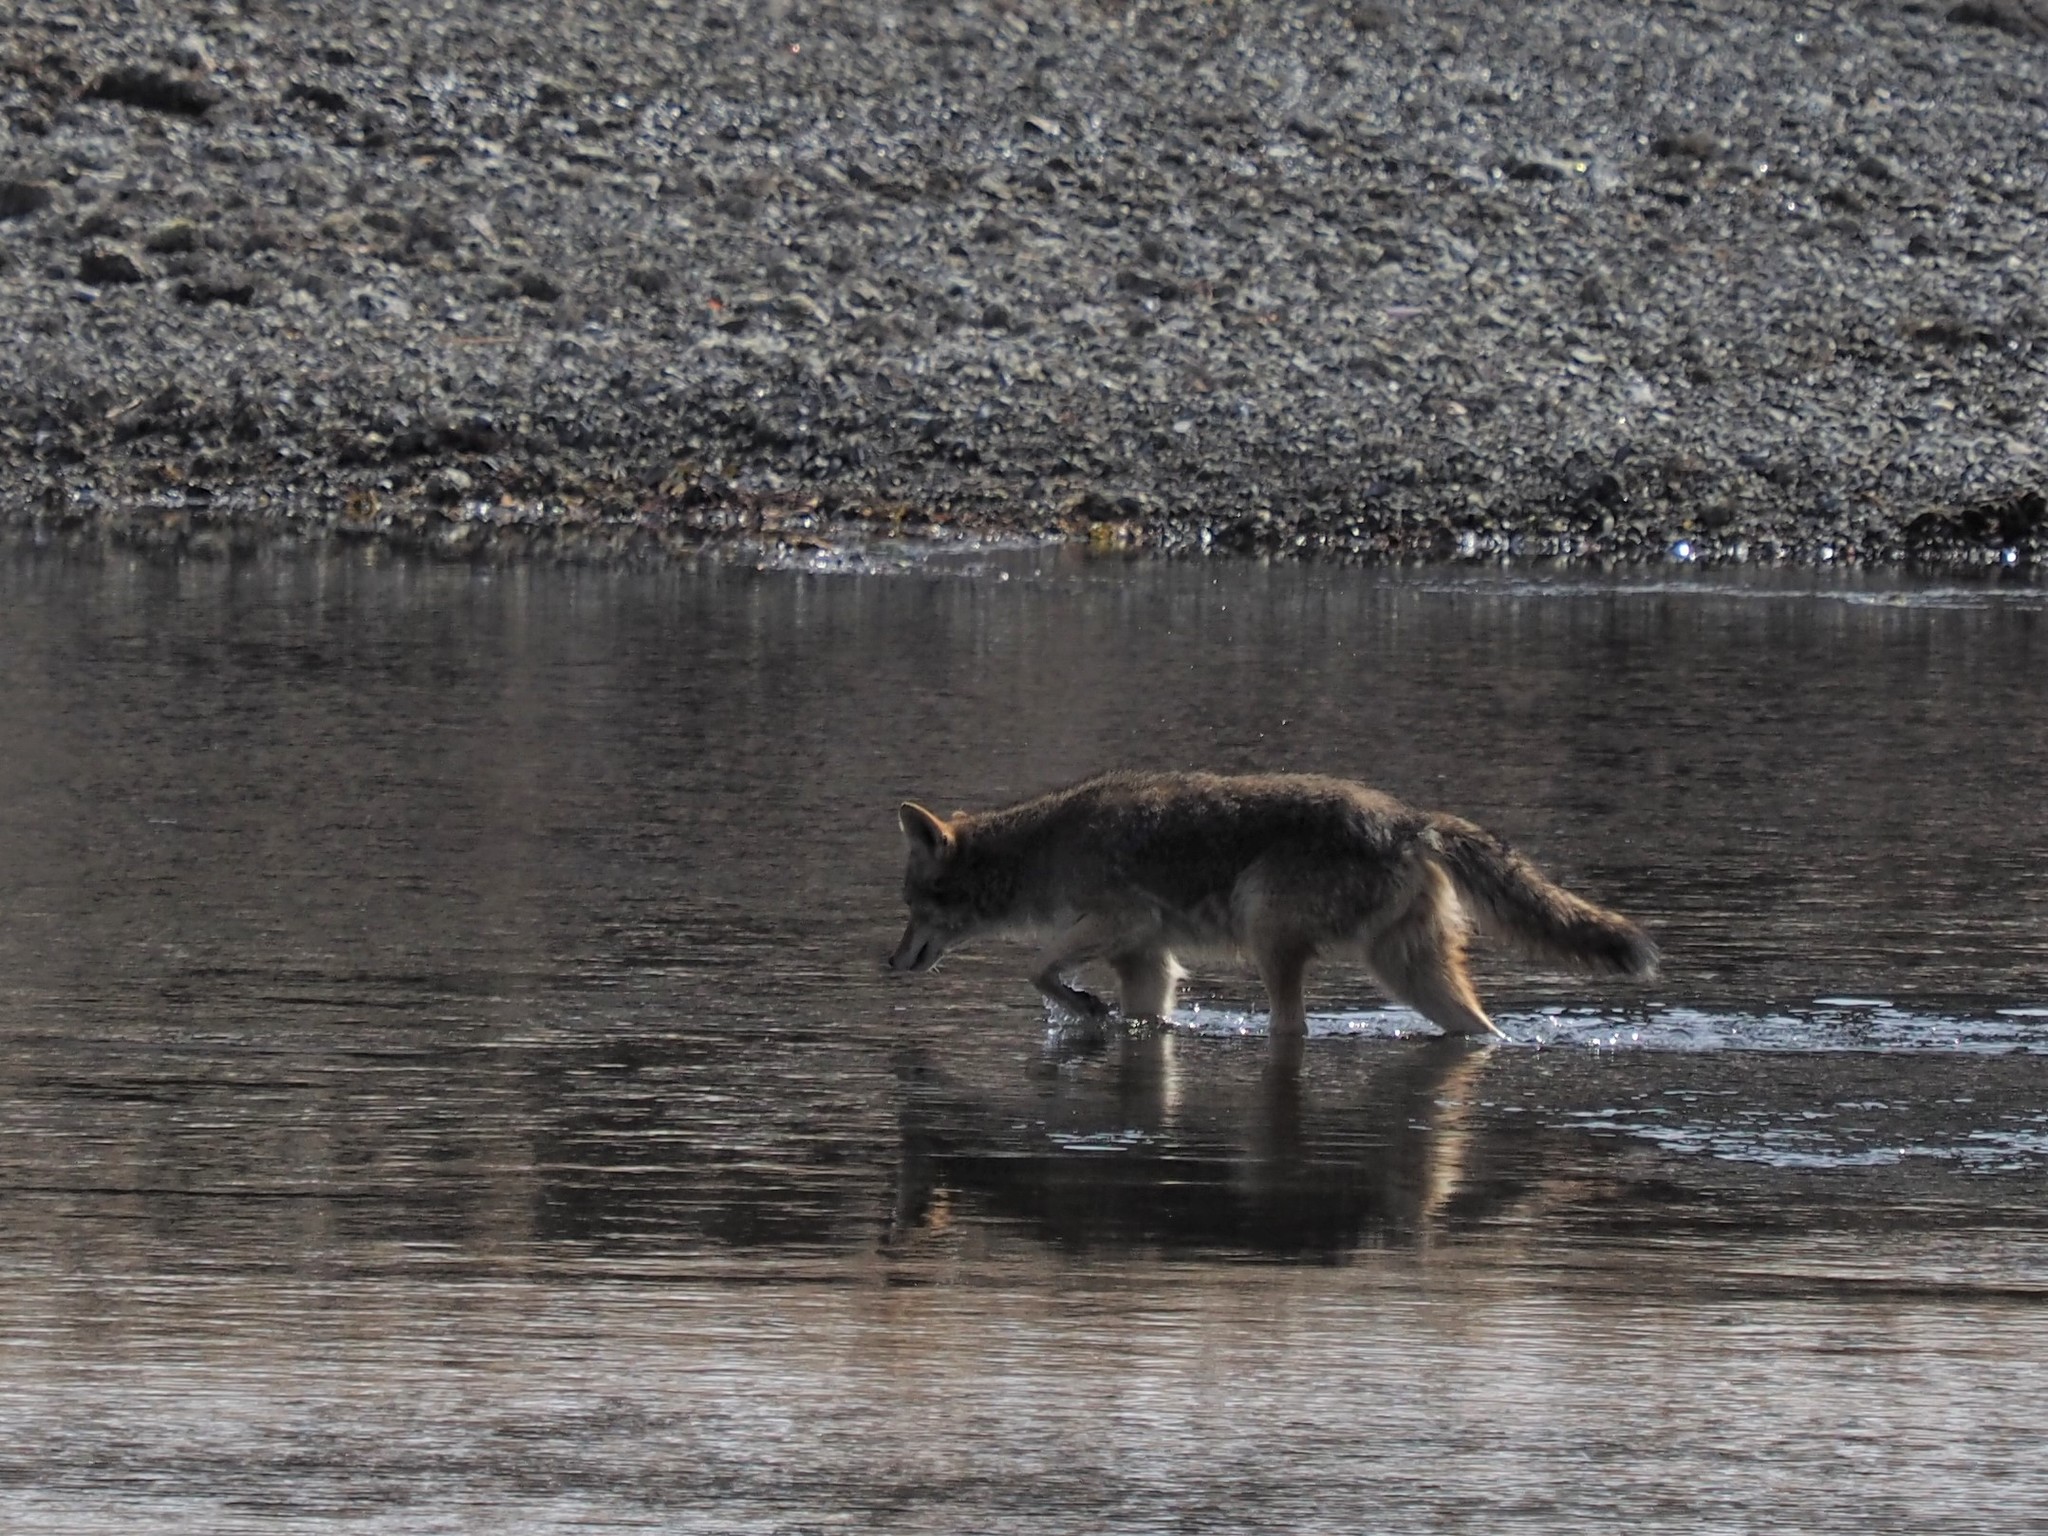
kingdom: Animalia
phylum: Chordata
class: Mammalia
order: Carnivora
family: Canidae
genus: Canis
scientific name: Canis latrans
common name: Coyote
